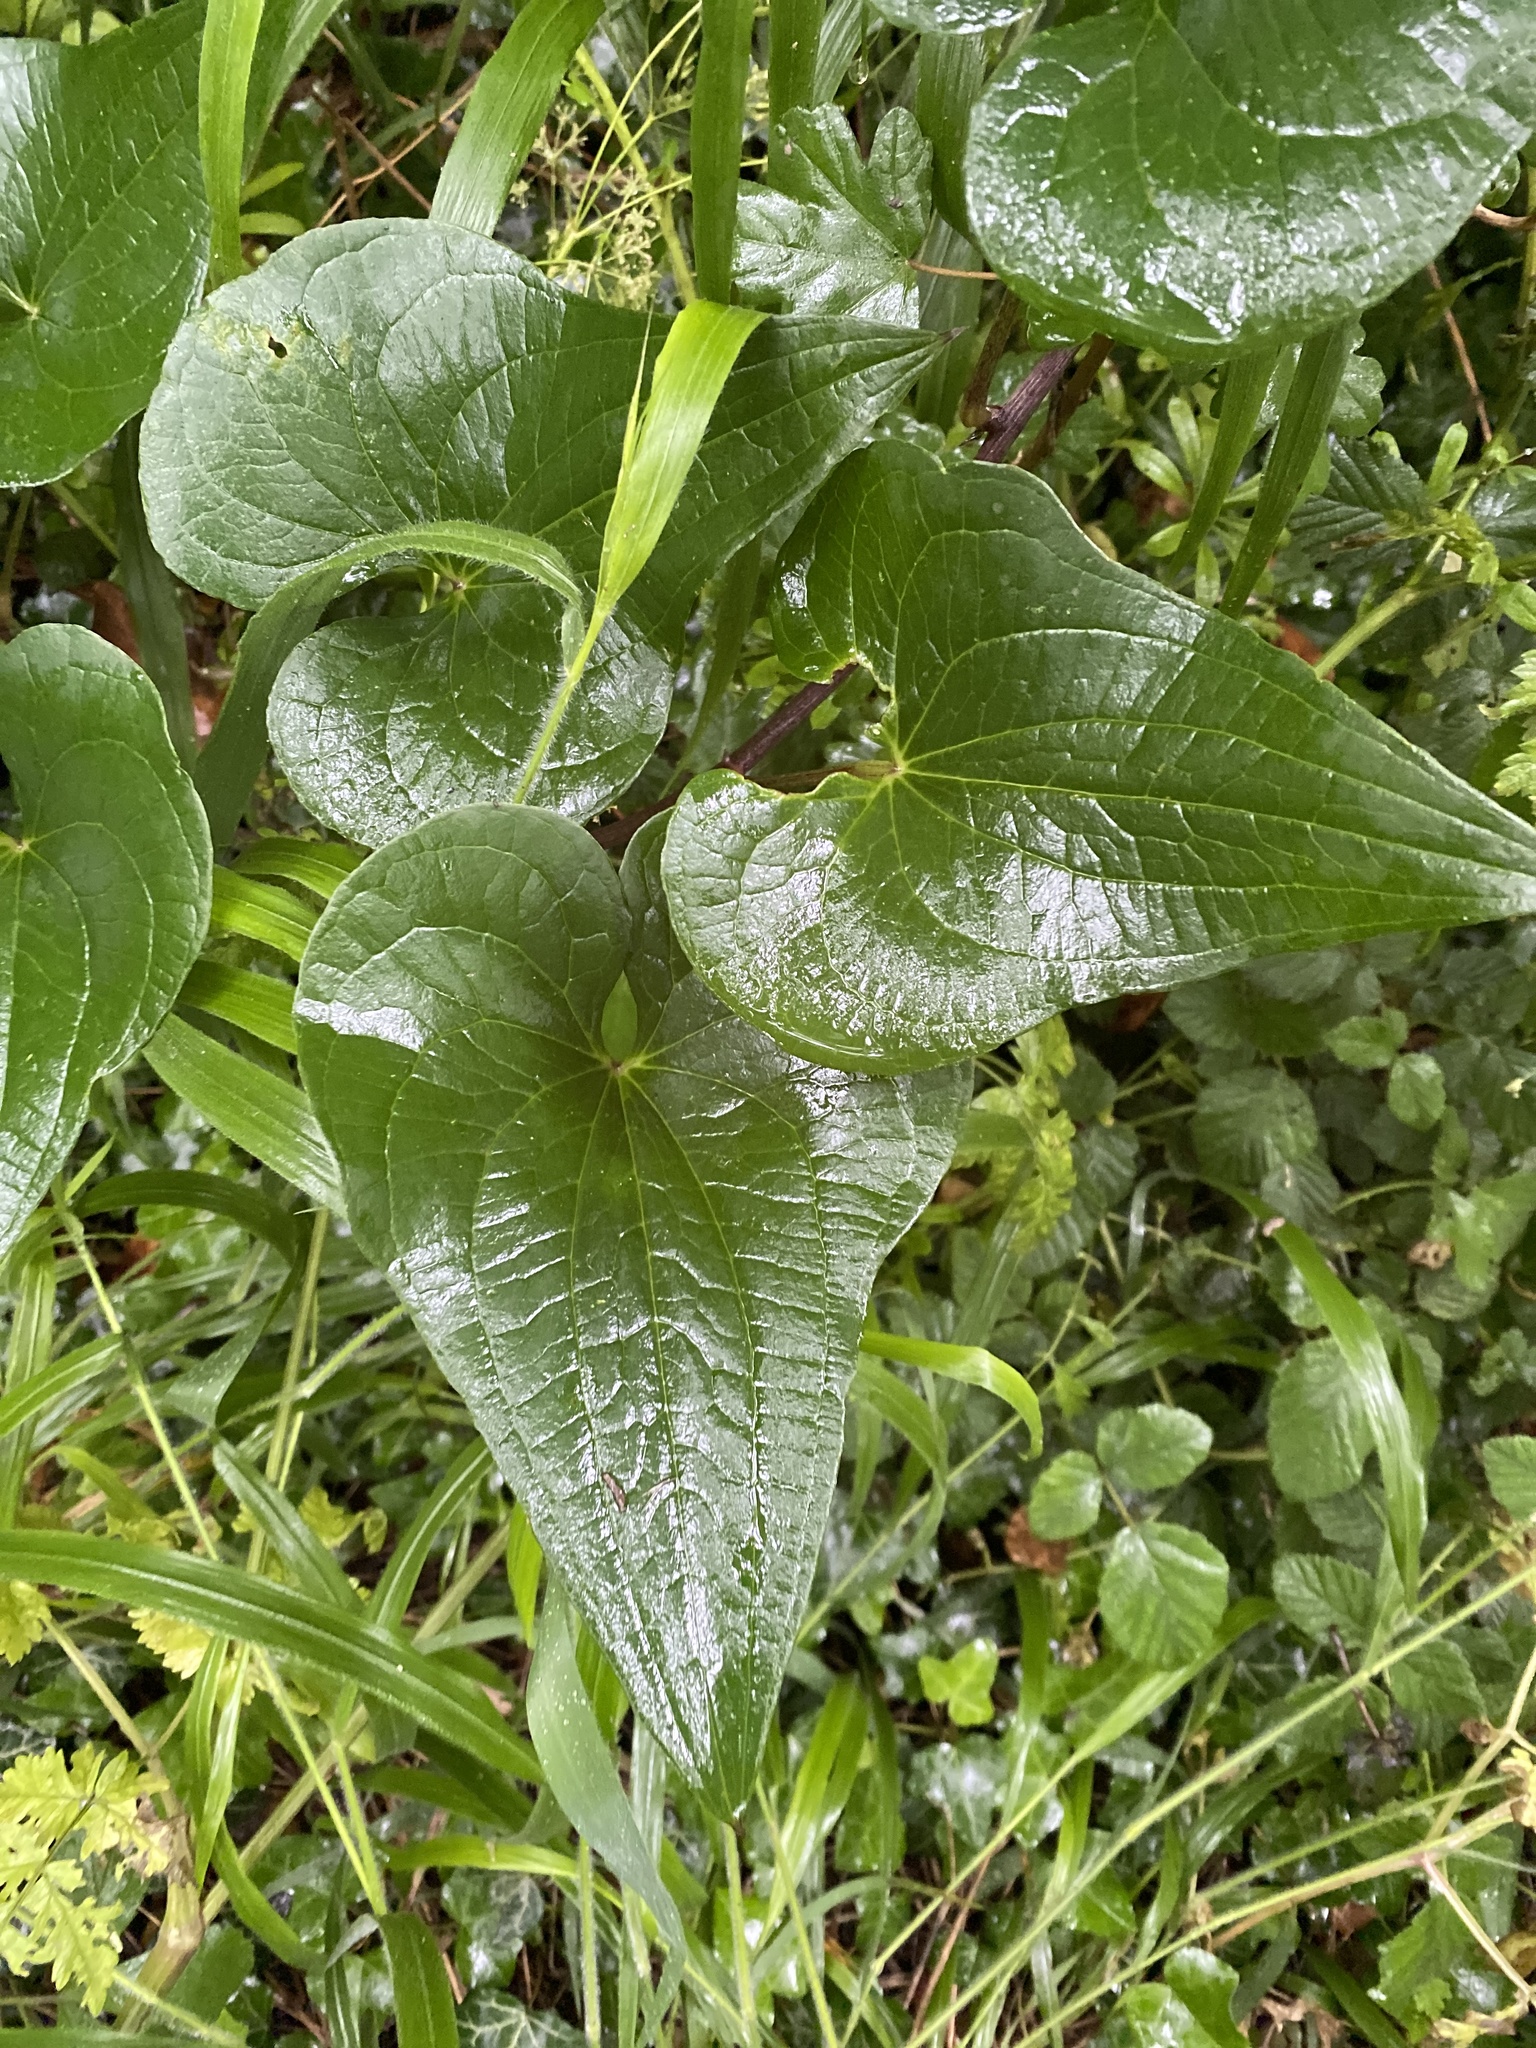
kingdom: Plantae
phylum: Tracheophyta
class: Liliopsida
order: Dioscoreales
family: Dioscoreaceae
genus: Dioscorea
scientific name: Dioscorea communis
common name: Black-bindweed
